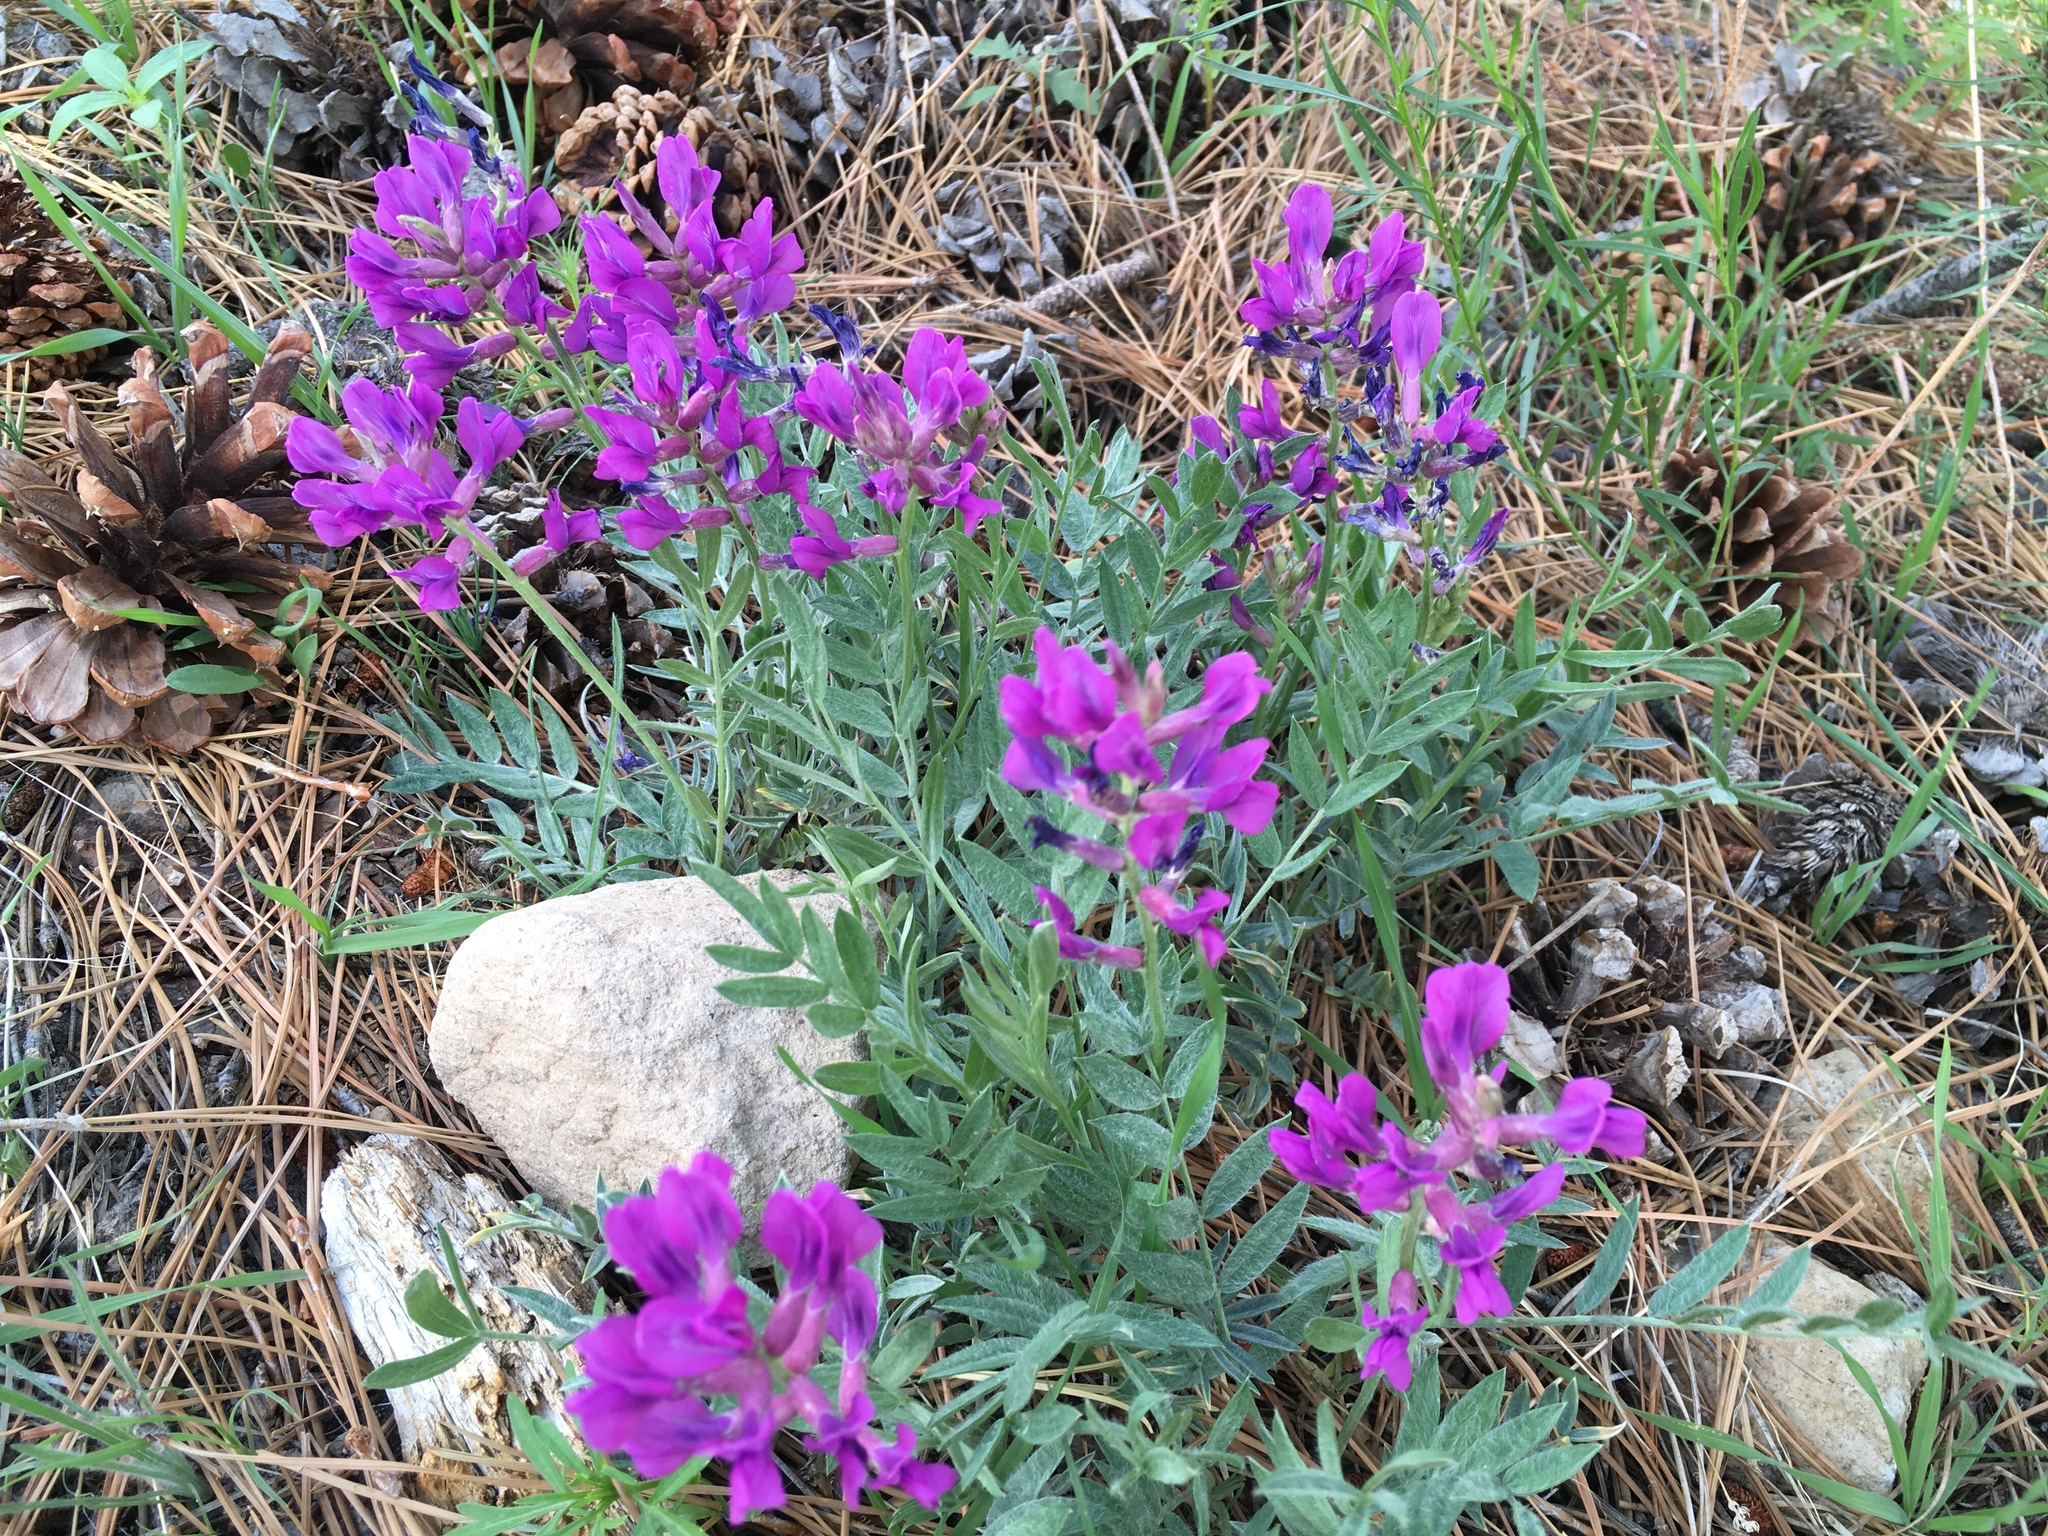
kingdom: Plantae
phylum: Tracheophyta
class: Magnoliopsida
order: Fabales
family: Fabaceae
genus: Oxytropis
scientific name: Oxytropis lambertii
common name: Purple locoweed
